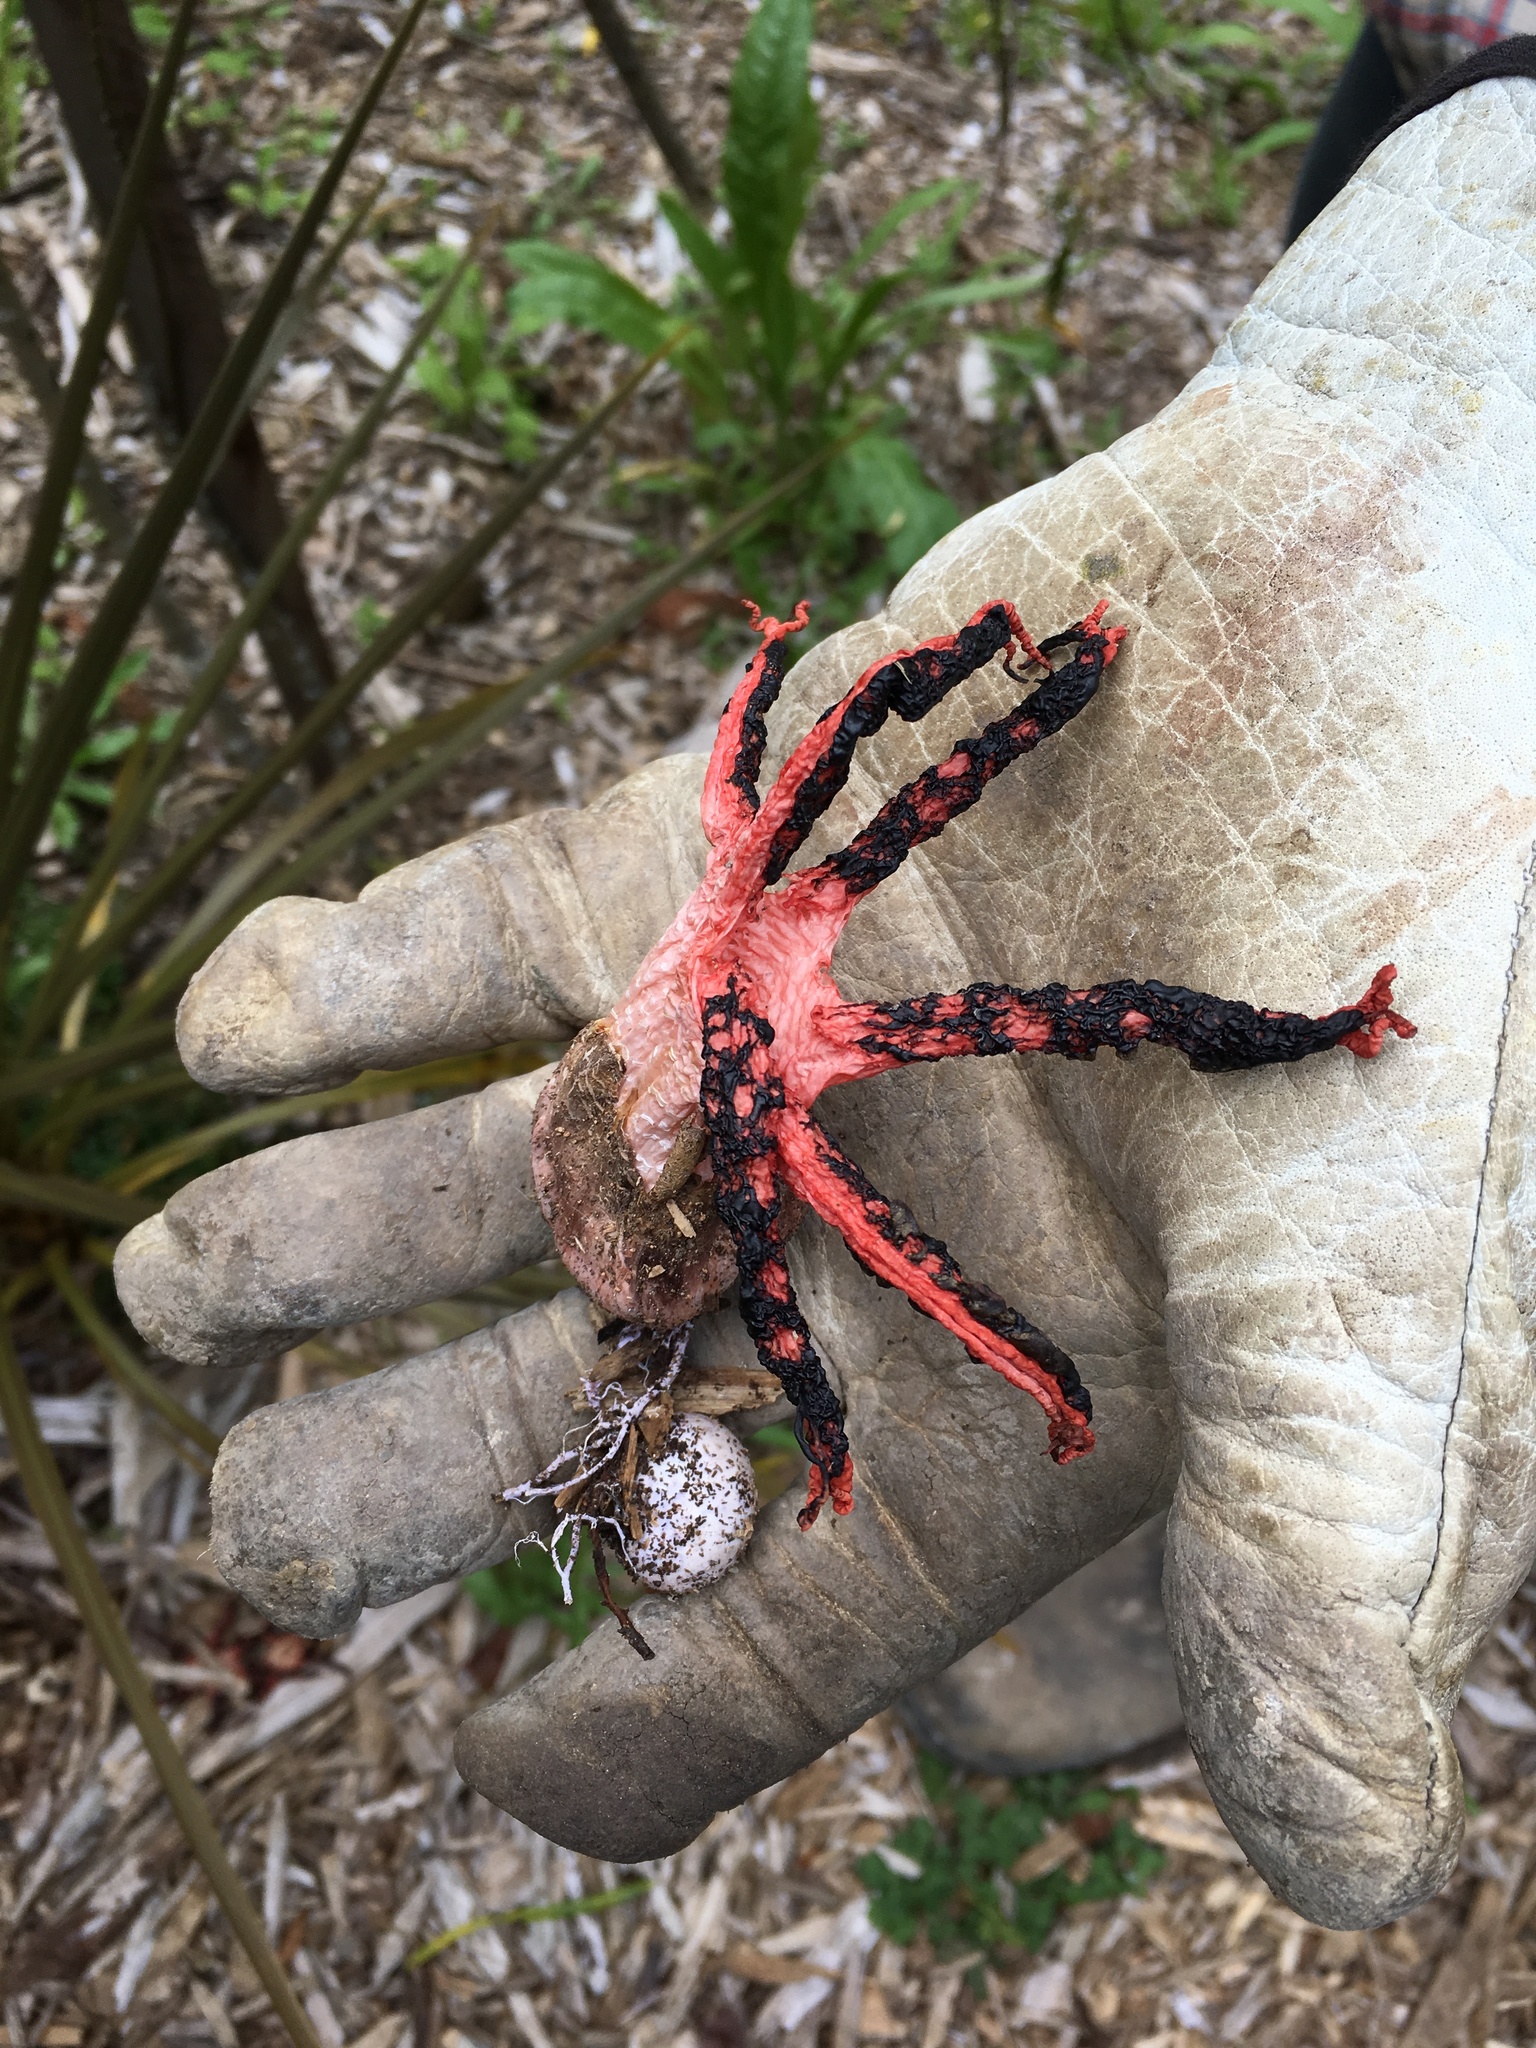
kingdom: Fungi
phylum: Basidiomycota
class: Agaricomycetes
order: Phallales
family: Phallaceae
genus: Clathrus
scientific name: Clathrus archeri
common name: Devil's fingers
